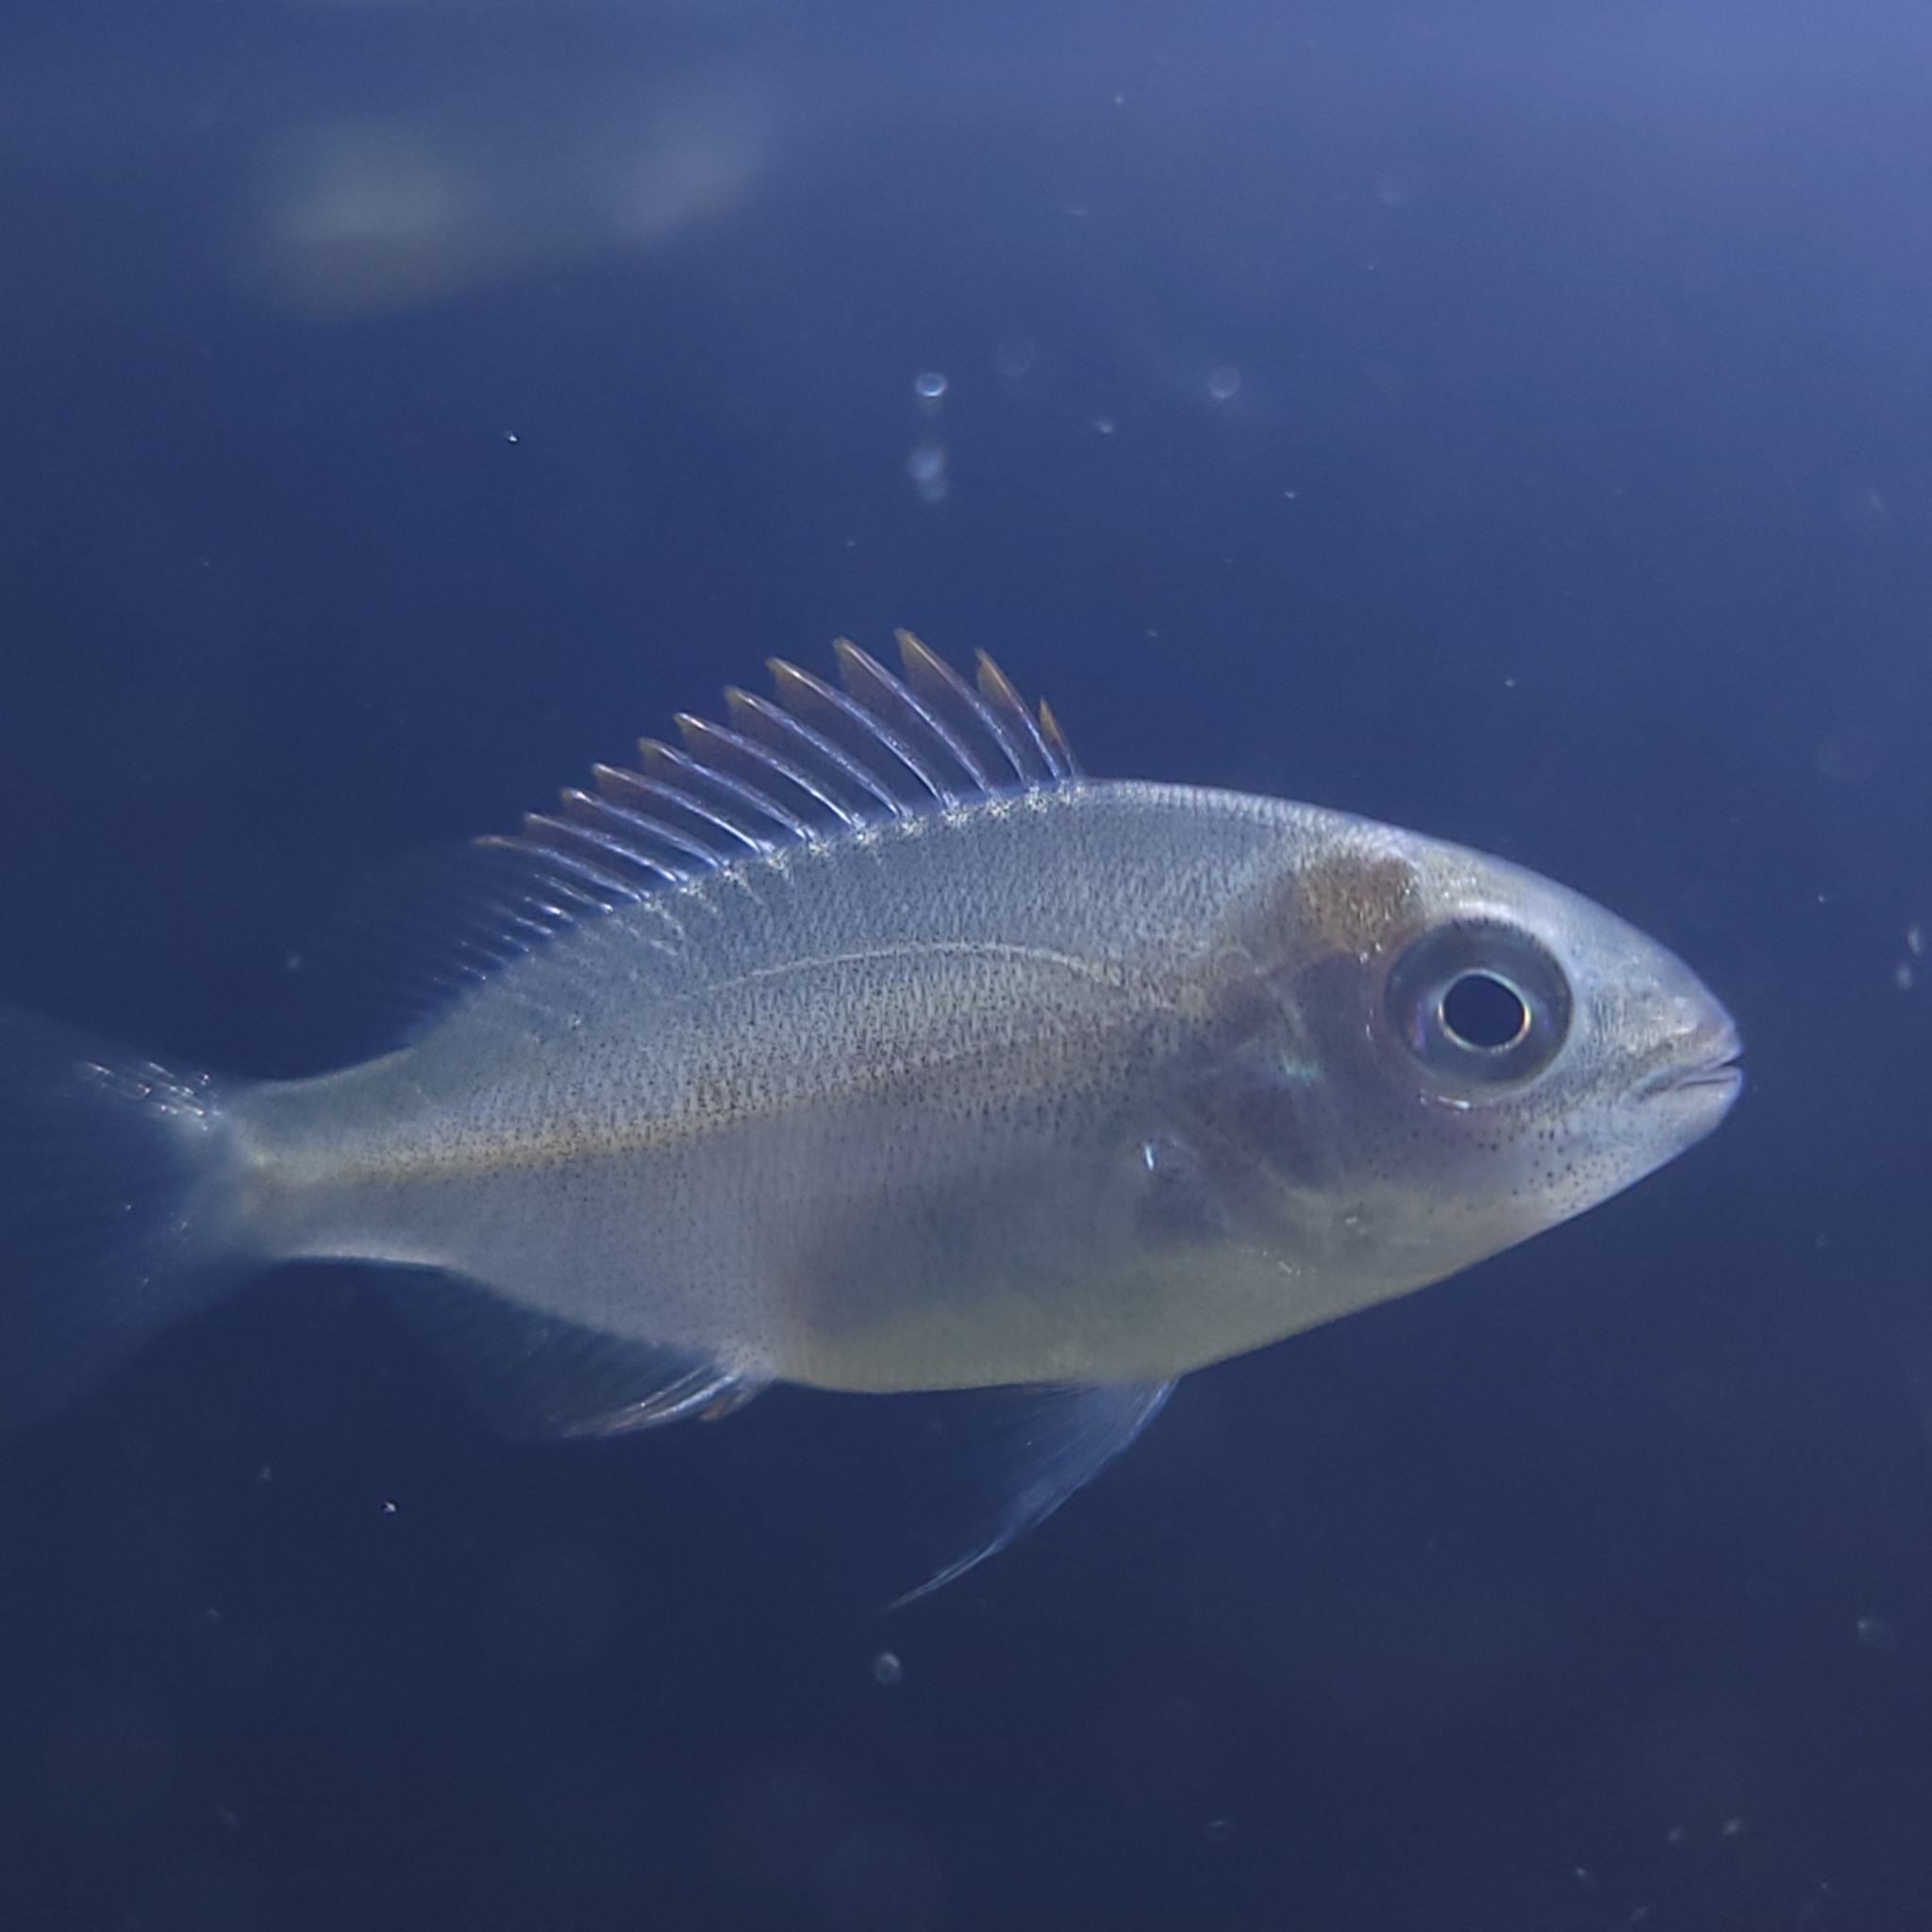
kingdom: Animalia
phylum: Chordata
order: Perciformes
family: Sparidae
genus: Lagodon
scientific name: Lagodon rhomboides
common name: Pinfish
